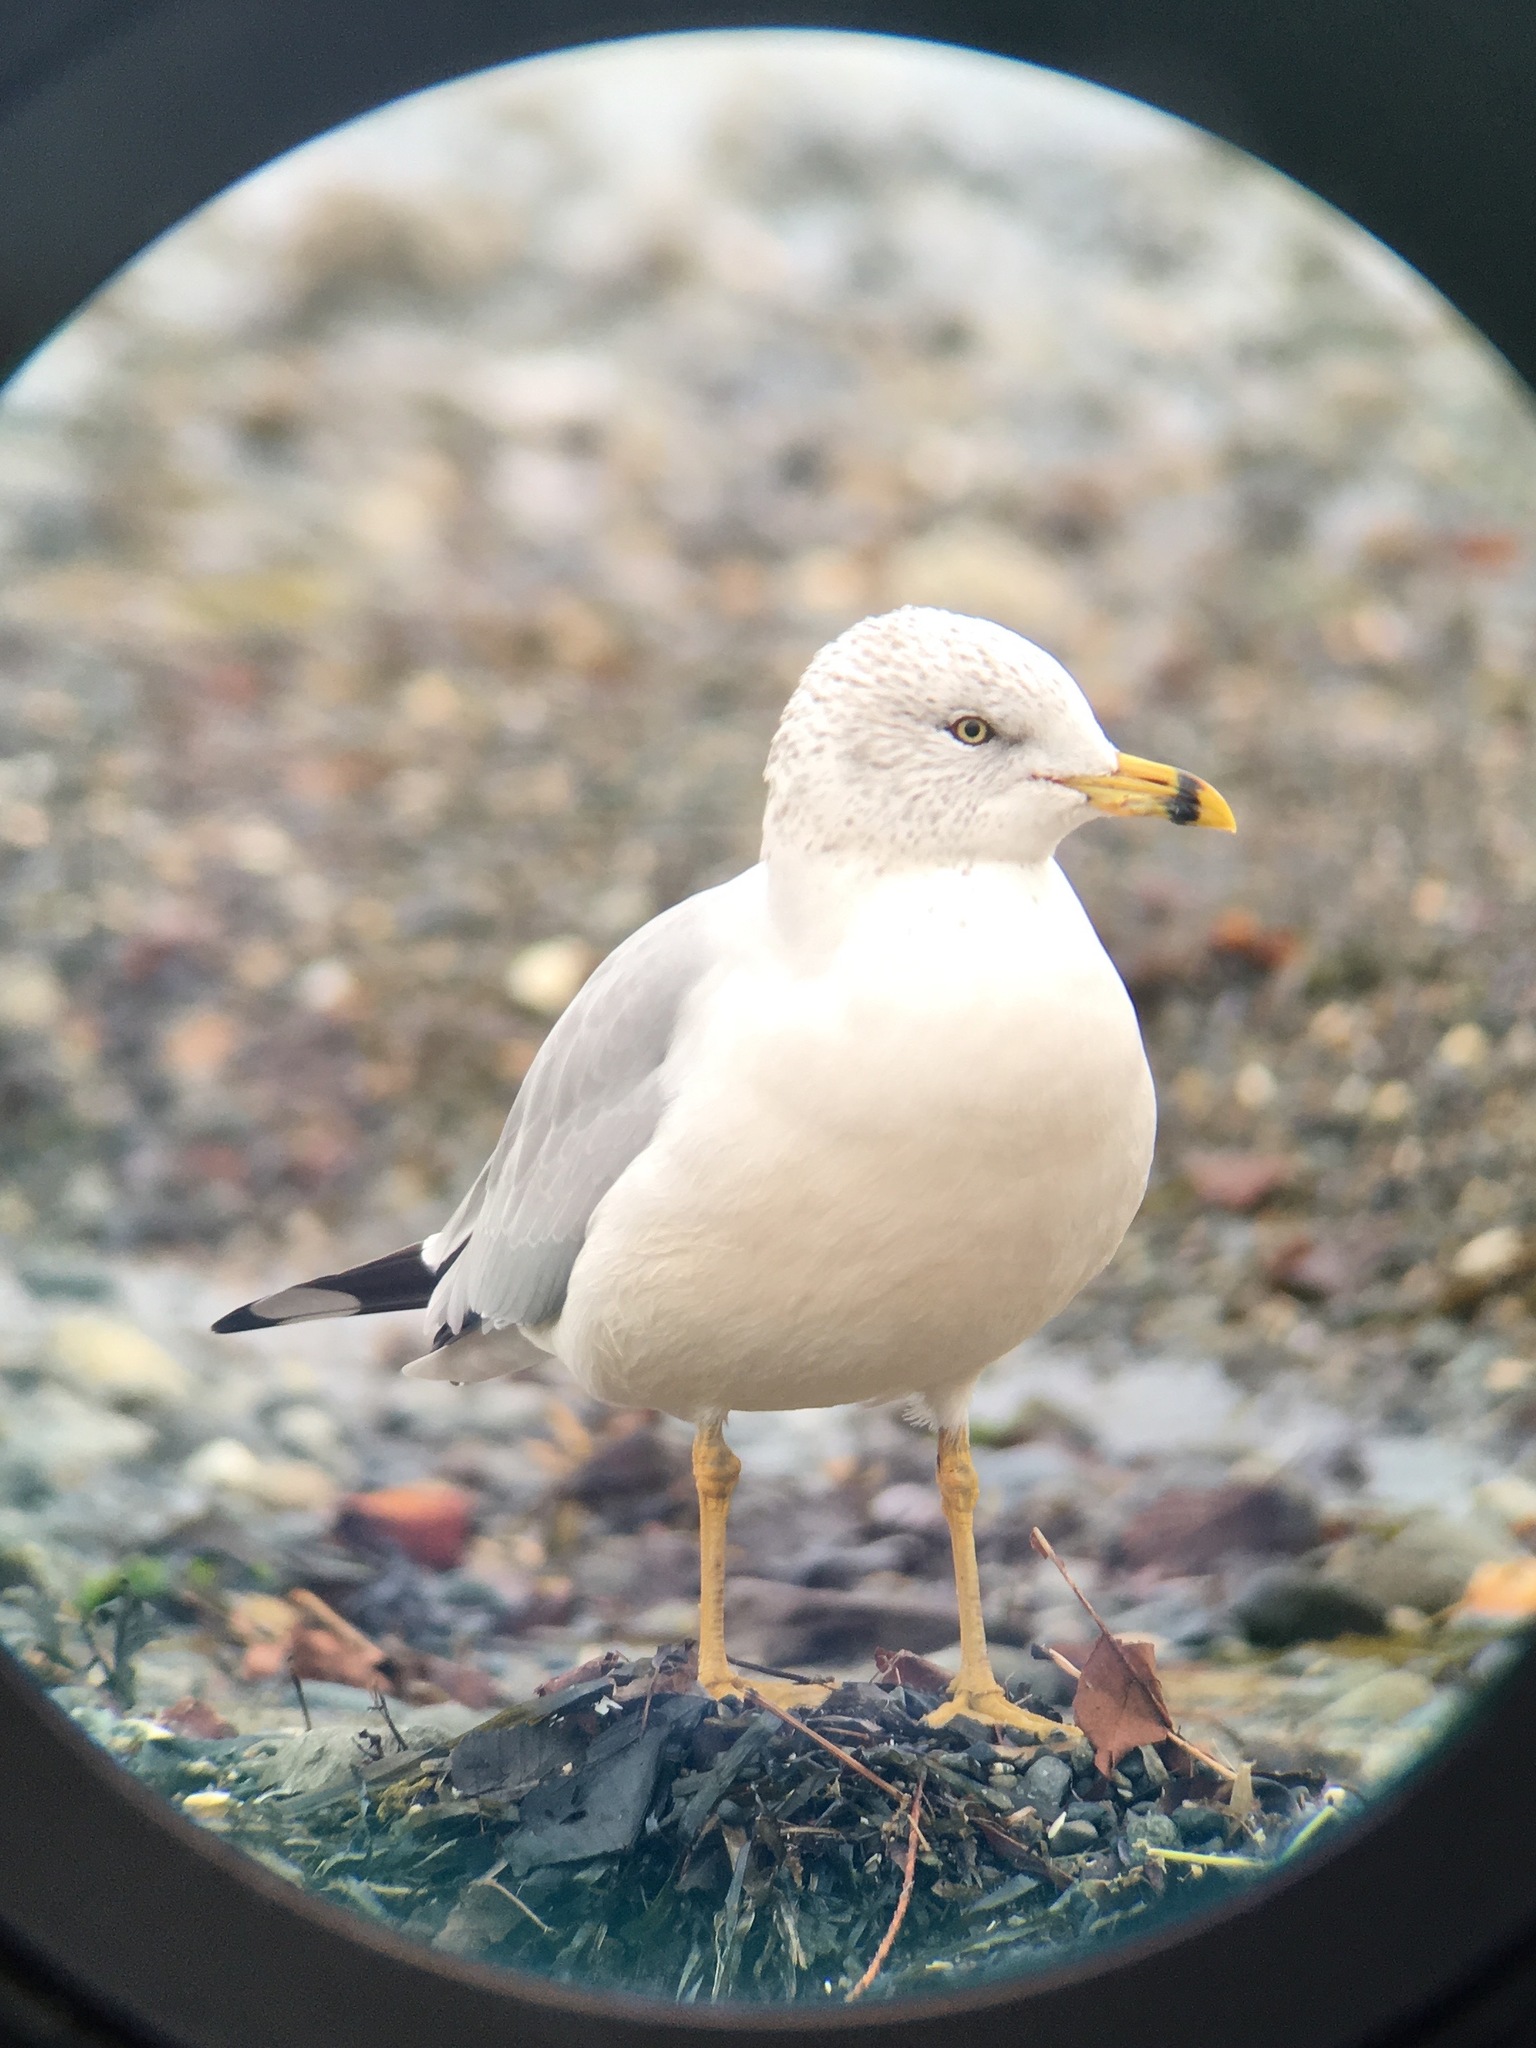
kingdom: Animalia
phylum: Chordata
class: Aves
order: Charadriiformes
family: Laridae
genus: Larus
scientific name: Larus delawarensis
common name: Ring-billed gull
